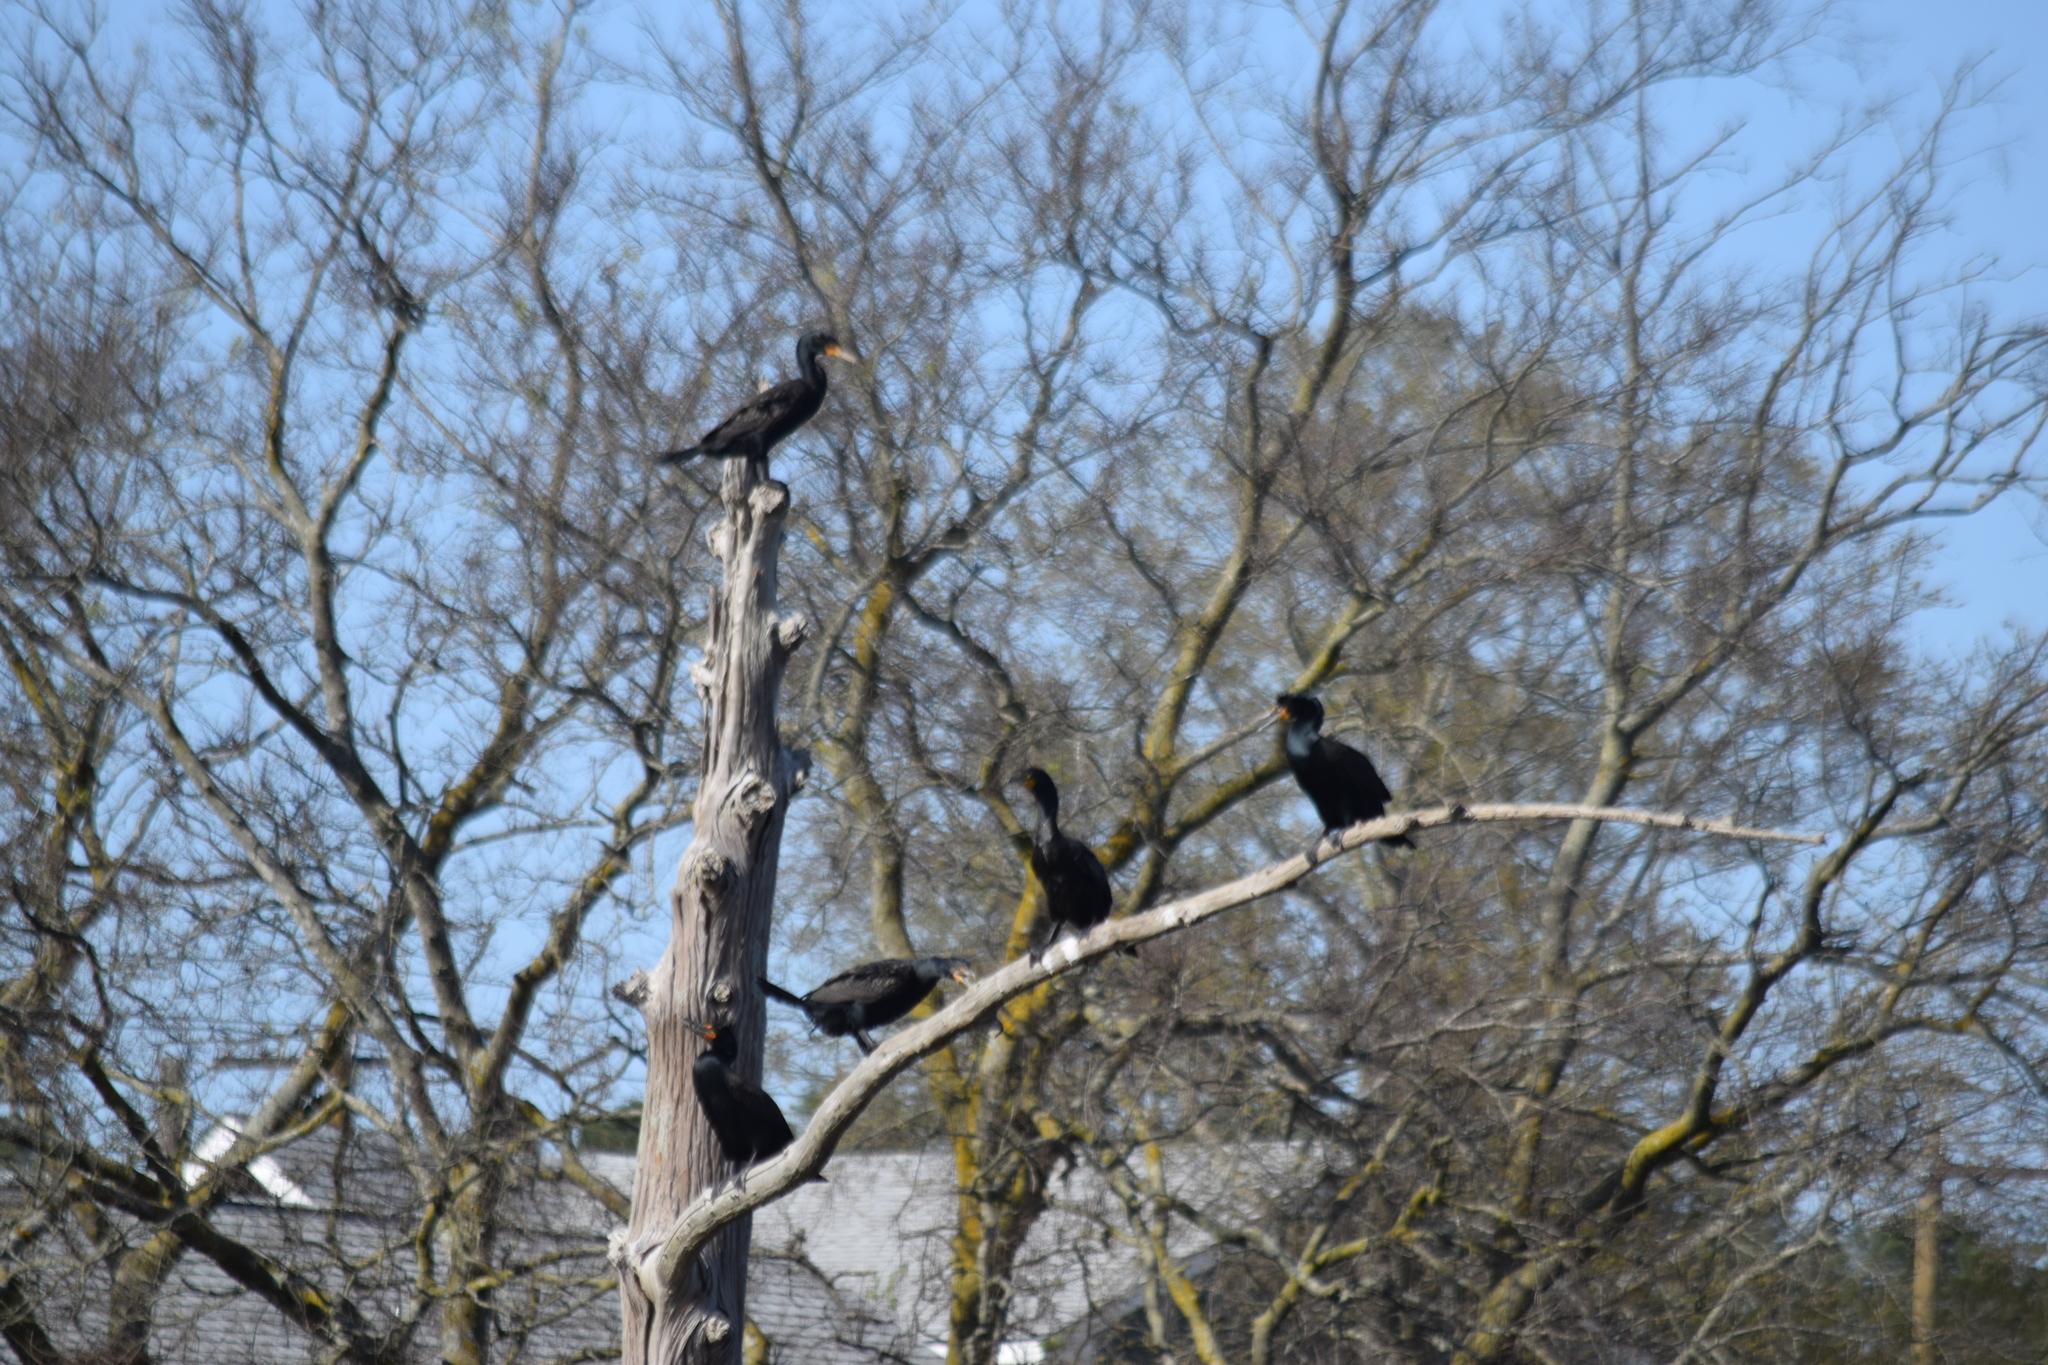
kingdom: Animalia
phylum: Chordata
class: Aves
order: Suliformes
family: Phalacrocoracidae
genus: Phalacrocorax
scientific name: Phalacrocorax auritus
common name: Double-crested cormorant
